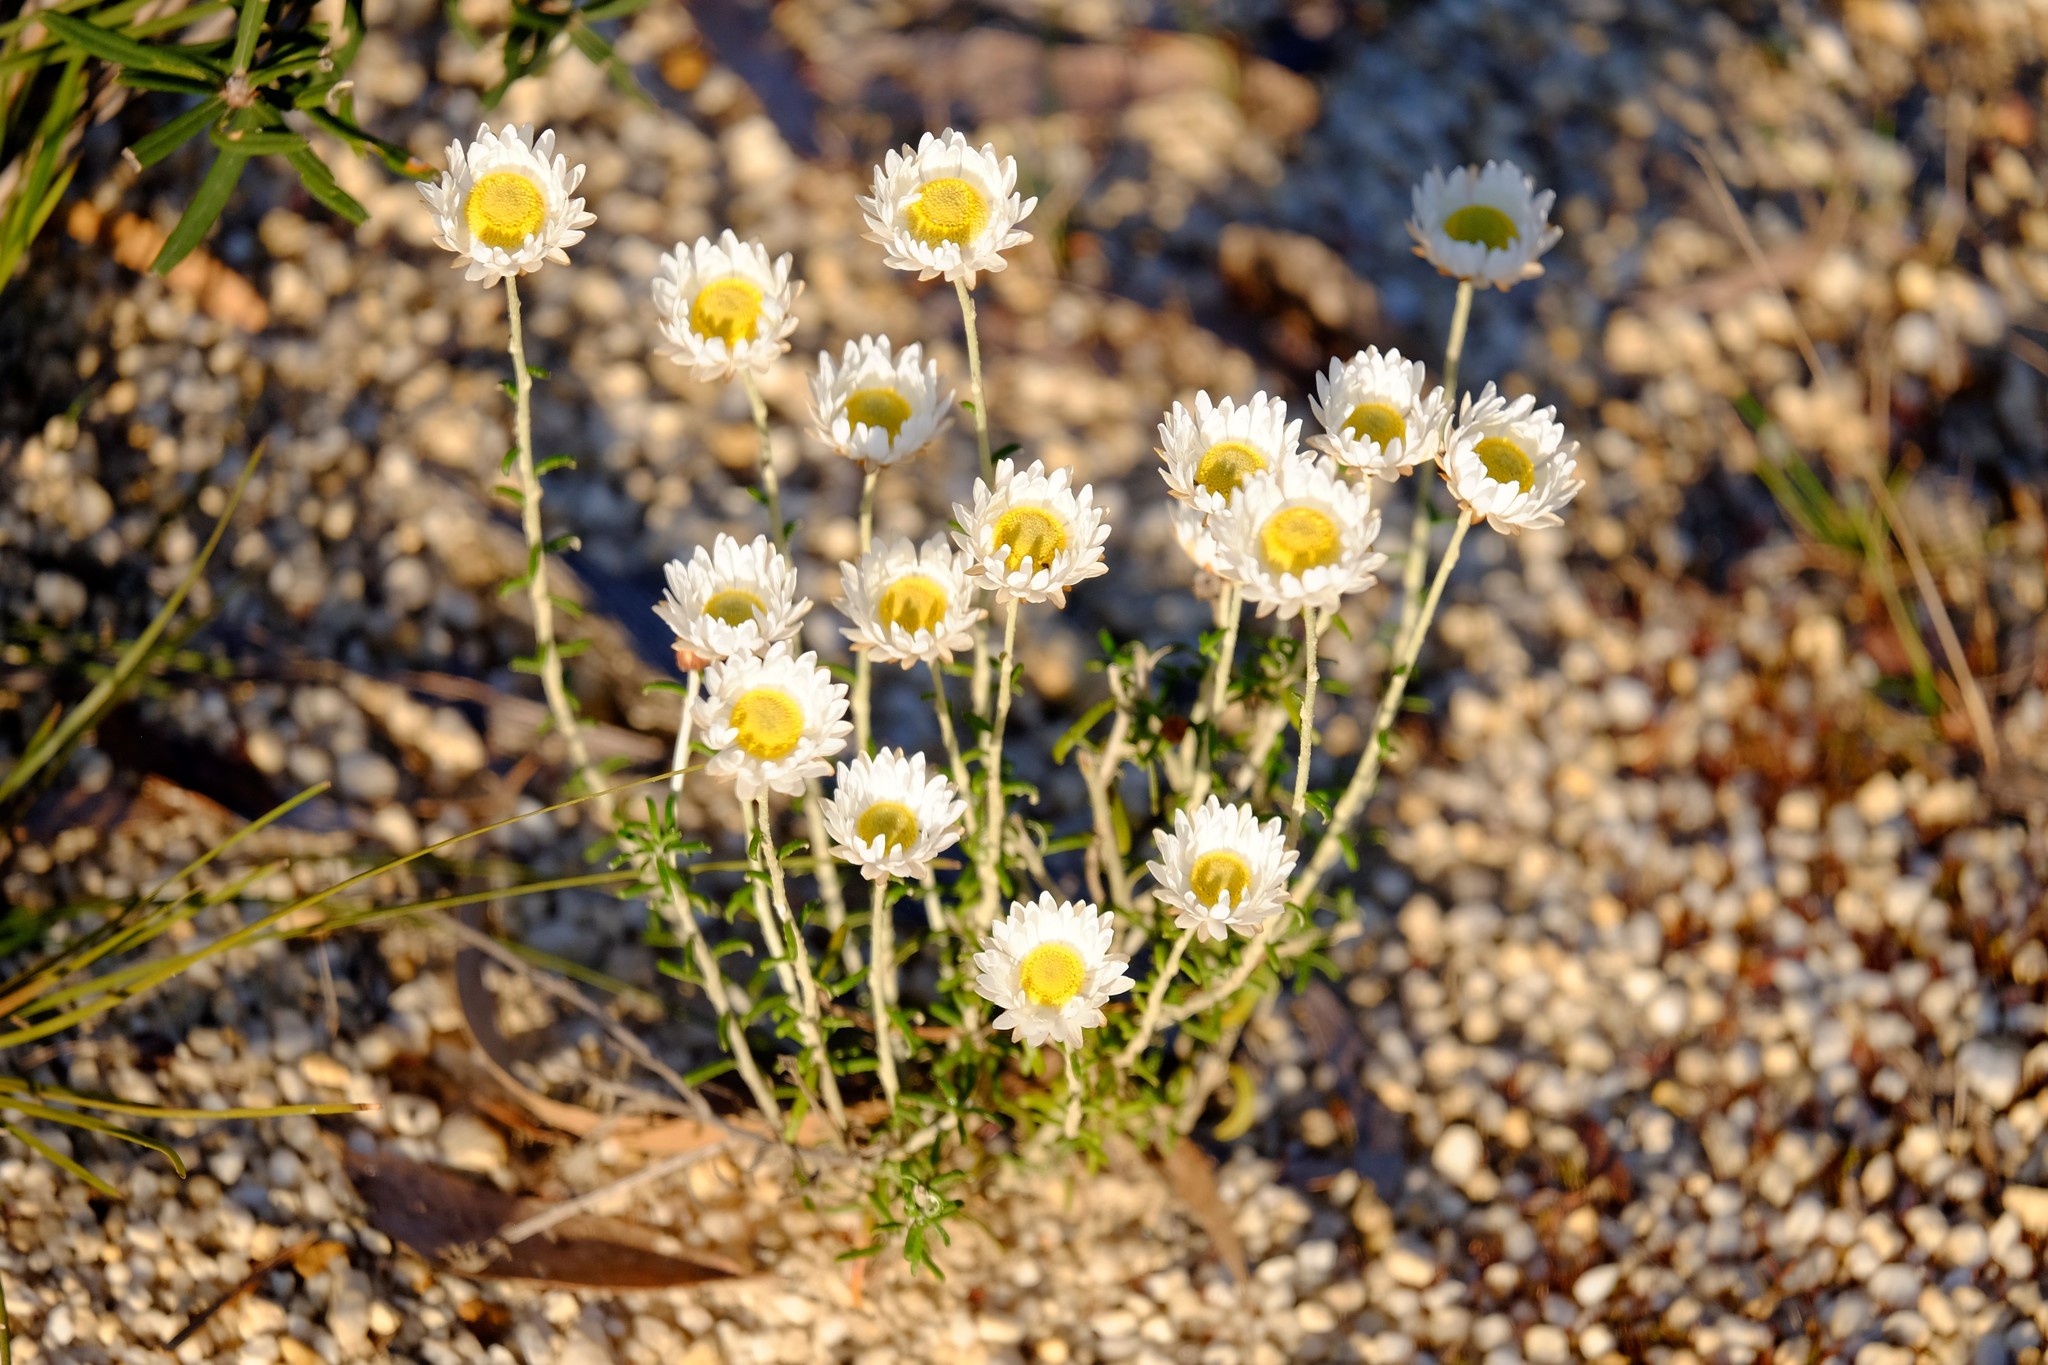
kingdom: Plantae
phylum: Tracheophyta
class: Magnoliopsida
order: Asterales
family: Asteraceae
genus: Argentipallium
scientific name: Argentipallium obtusifolium
